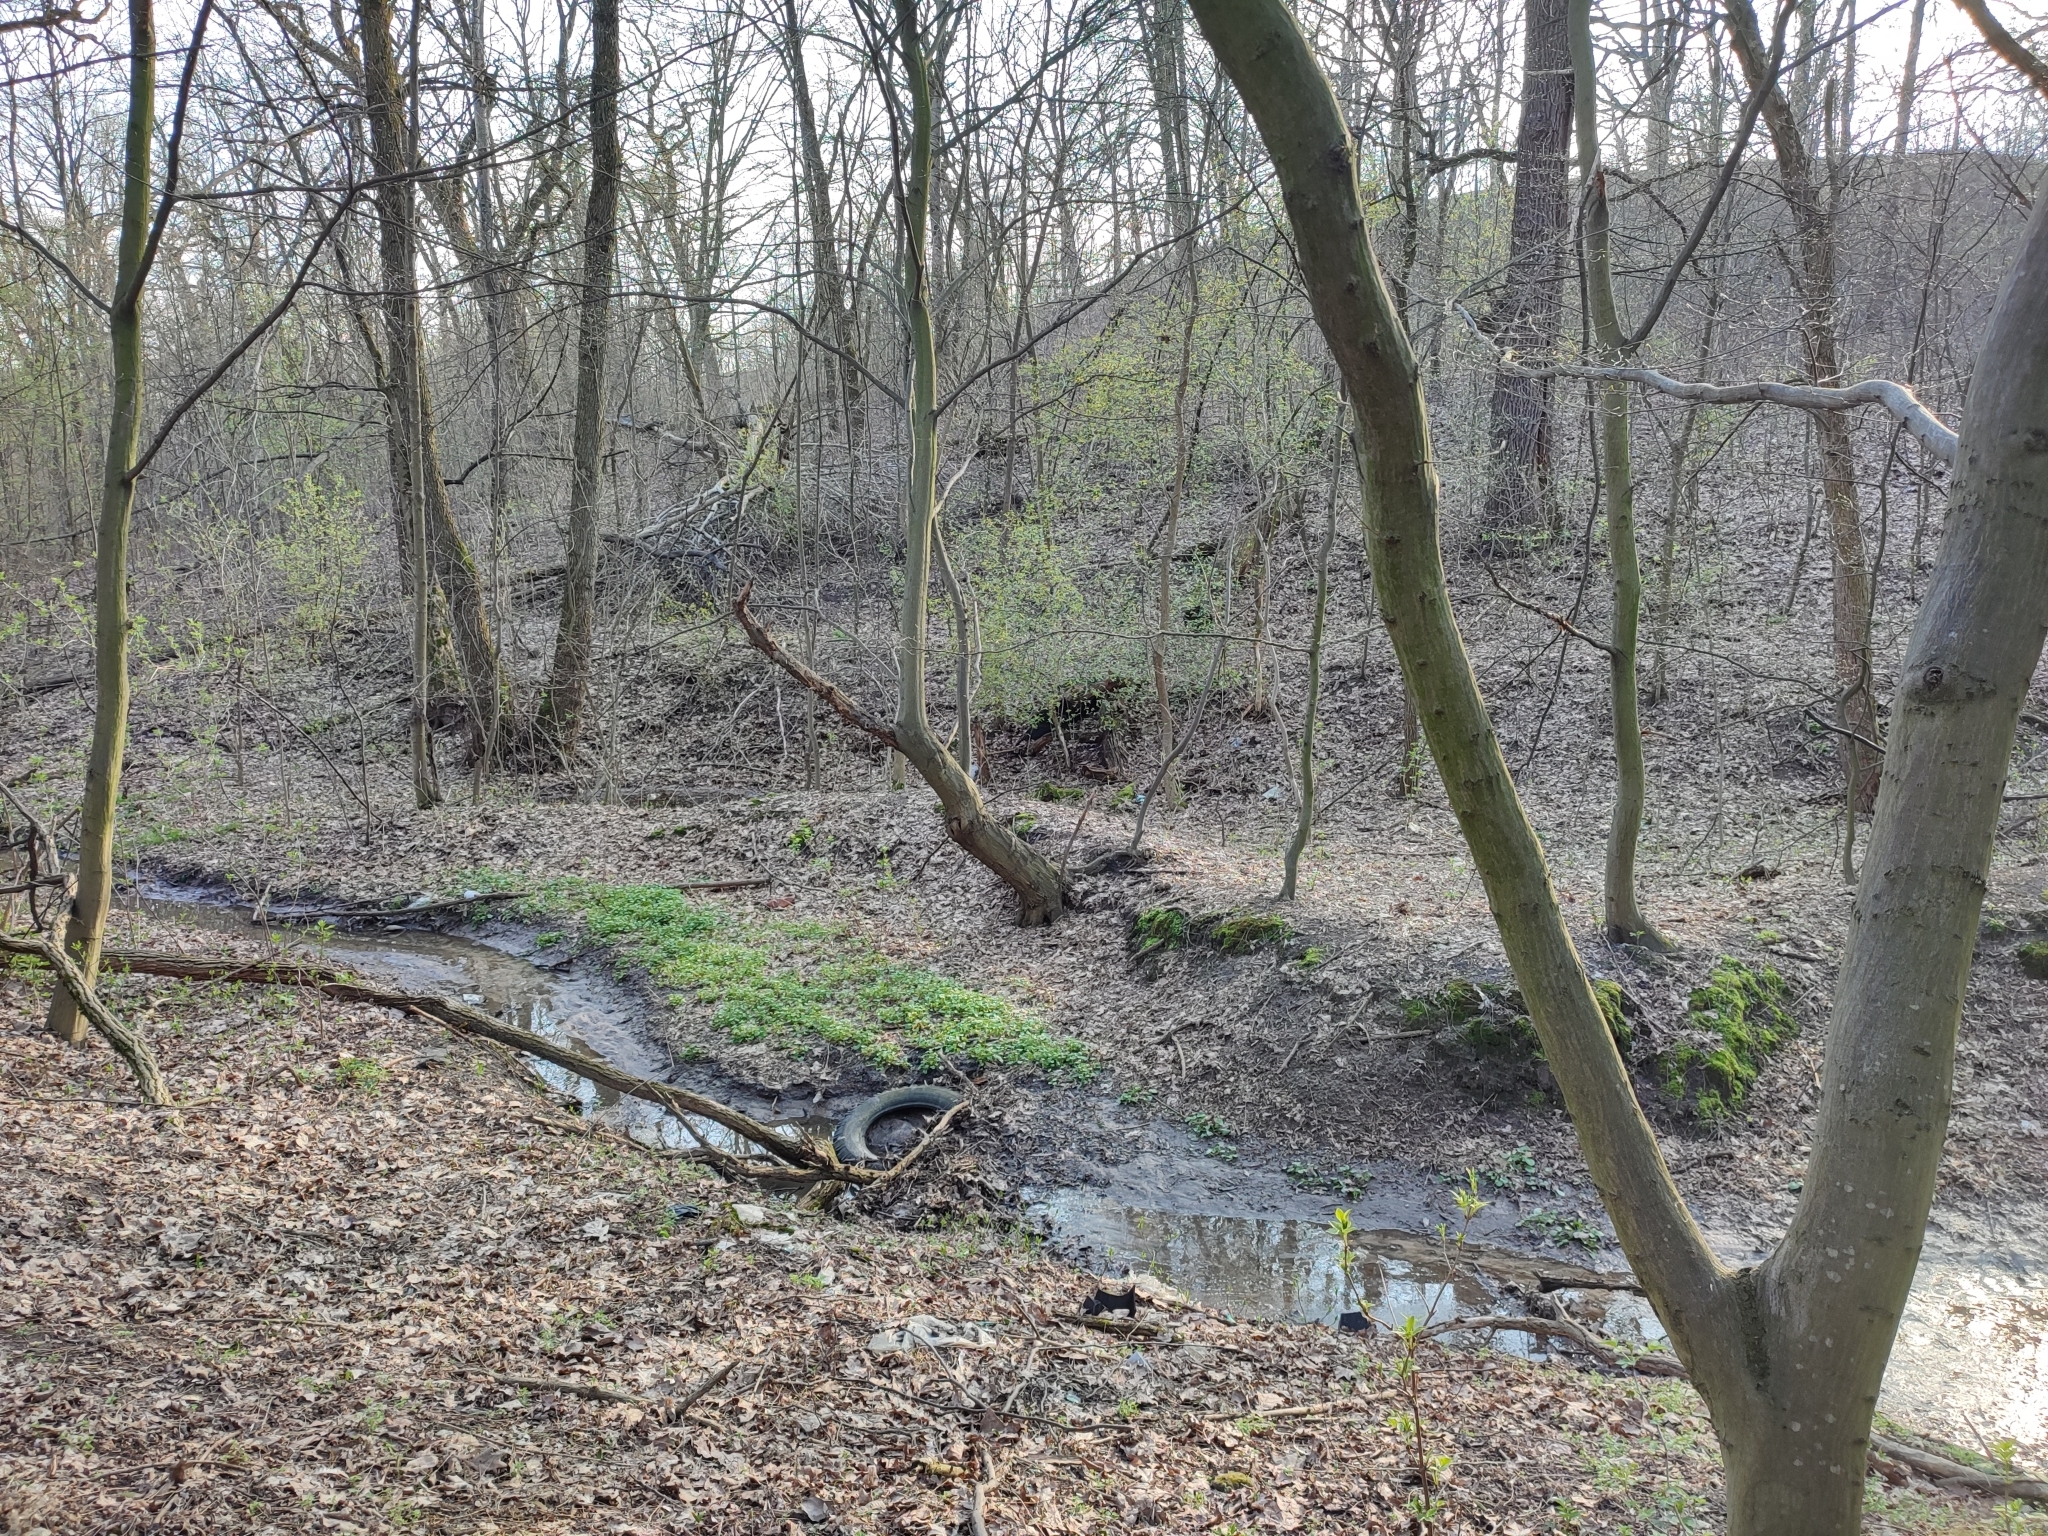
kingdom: Plantae
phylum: Tracheophyta
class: Magnoliopsida
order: Fagales
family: Betulaceae
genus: Carpinus
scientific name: Carpinus betulus
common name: Hornbeam
